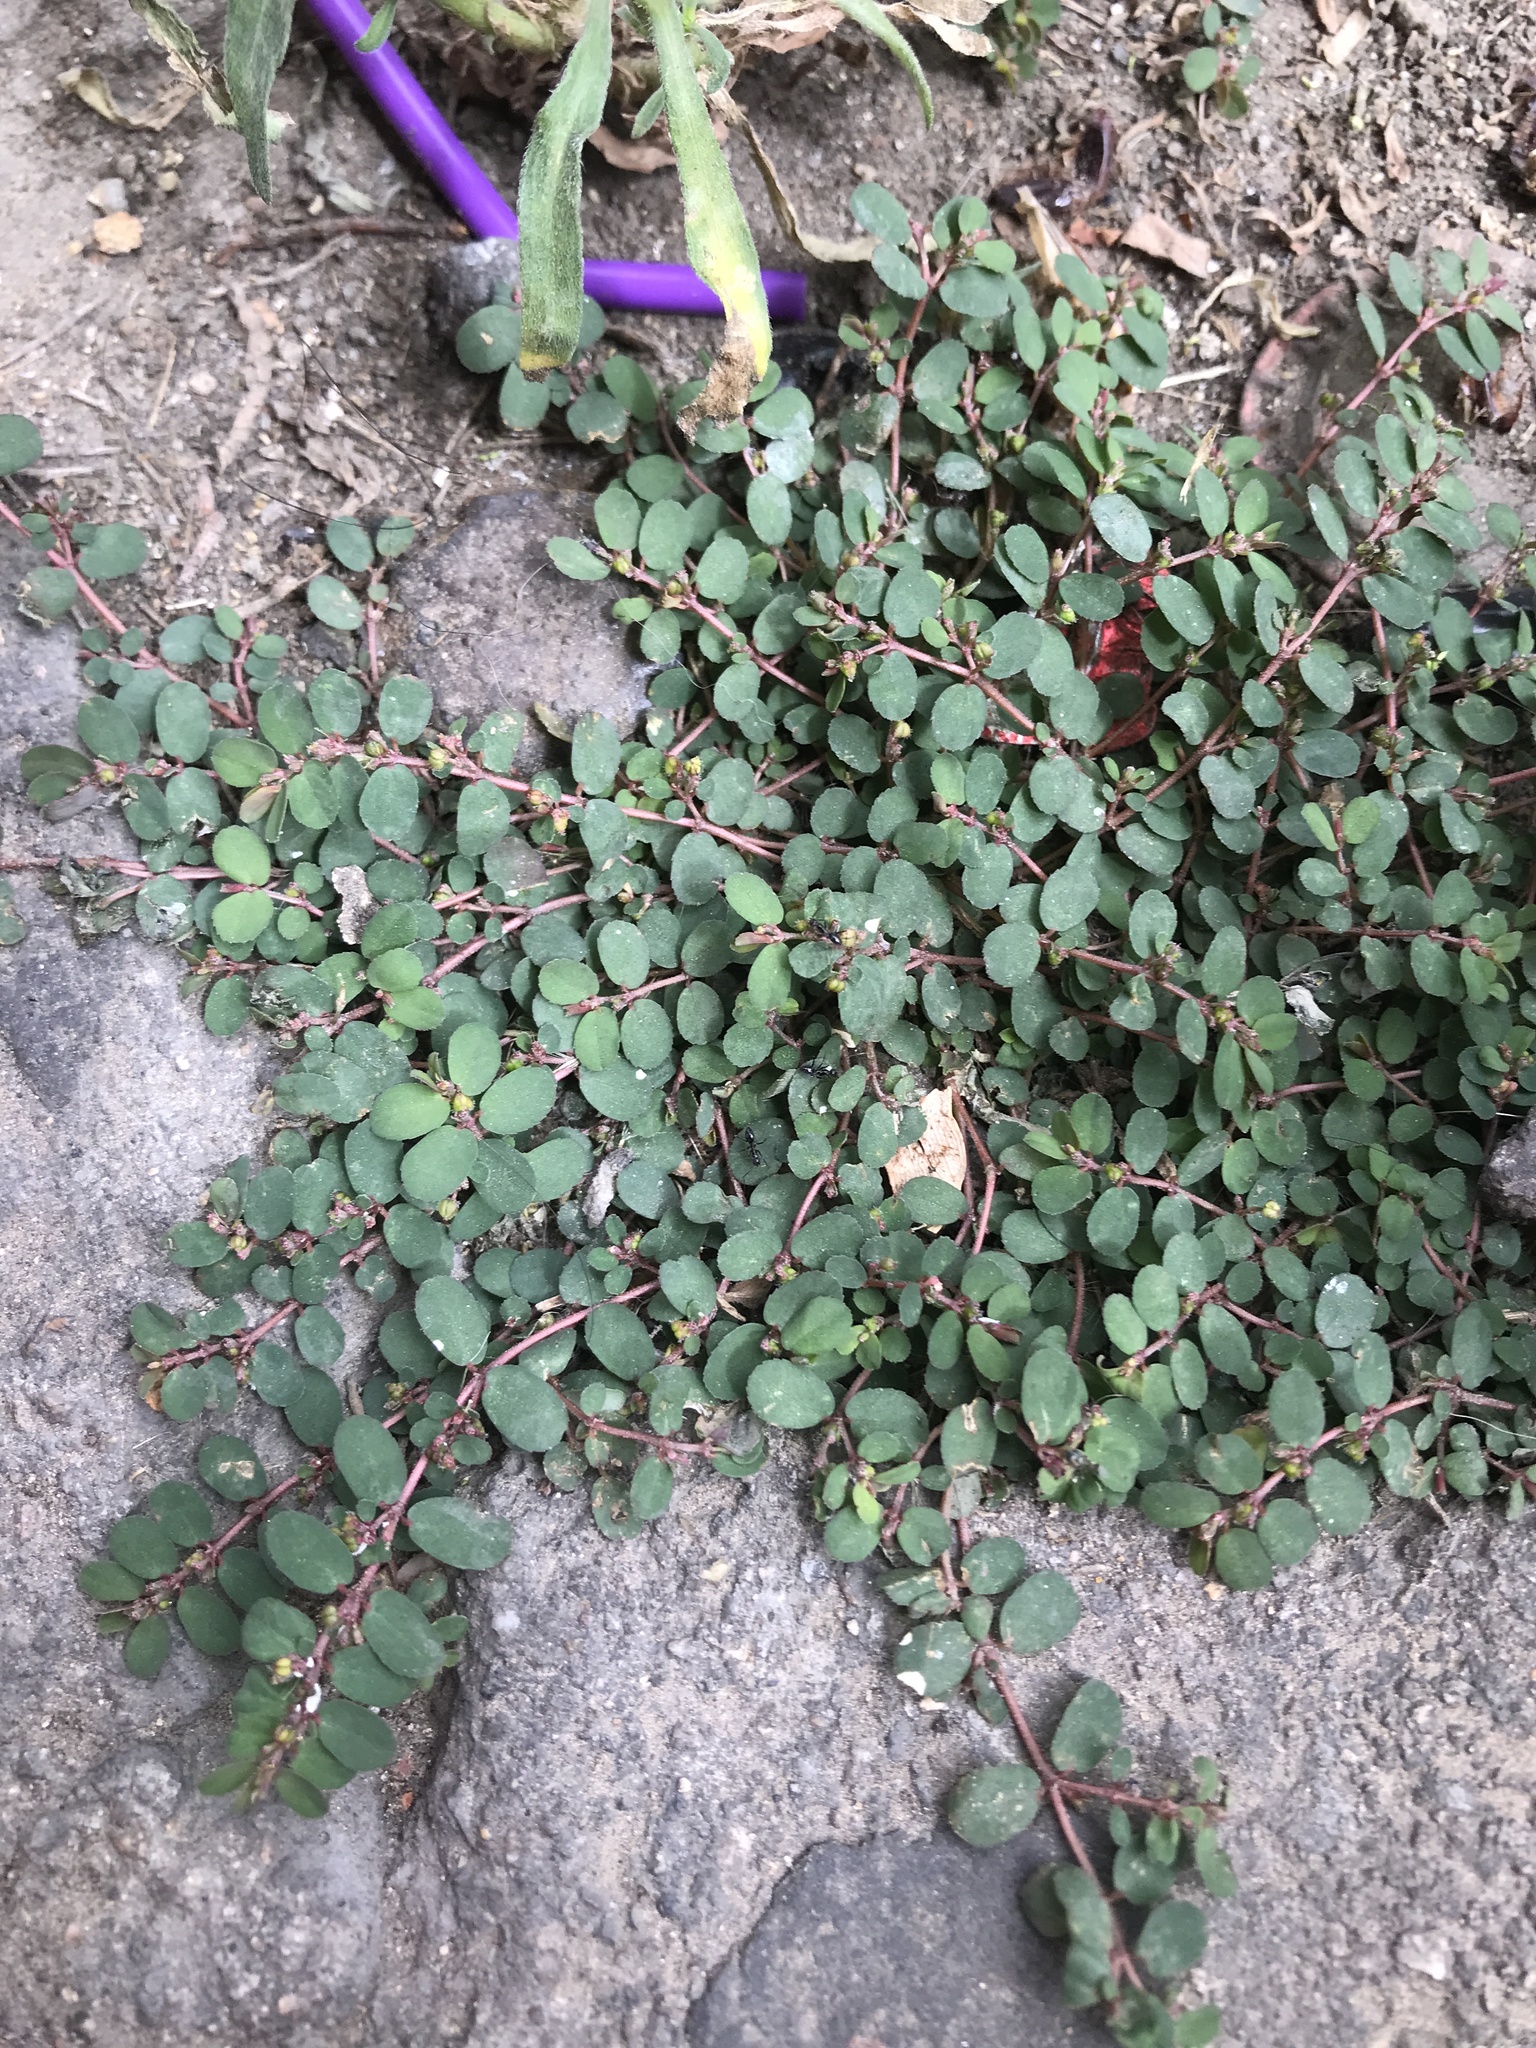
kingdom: Plantae
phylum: Tracheophyta
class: Magnoliopsida
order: Malpighiales
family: Euphorbiaceae
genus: Euphorbia
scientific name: Euphorbia prostrata
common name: Prostrate sandmat
